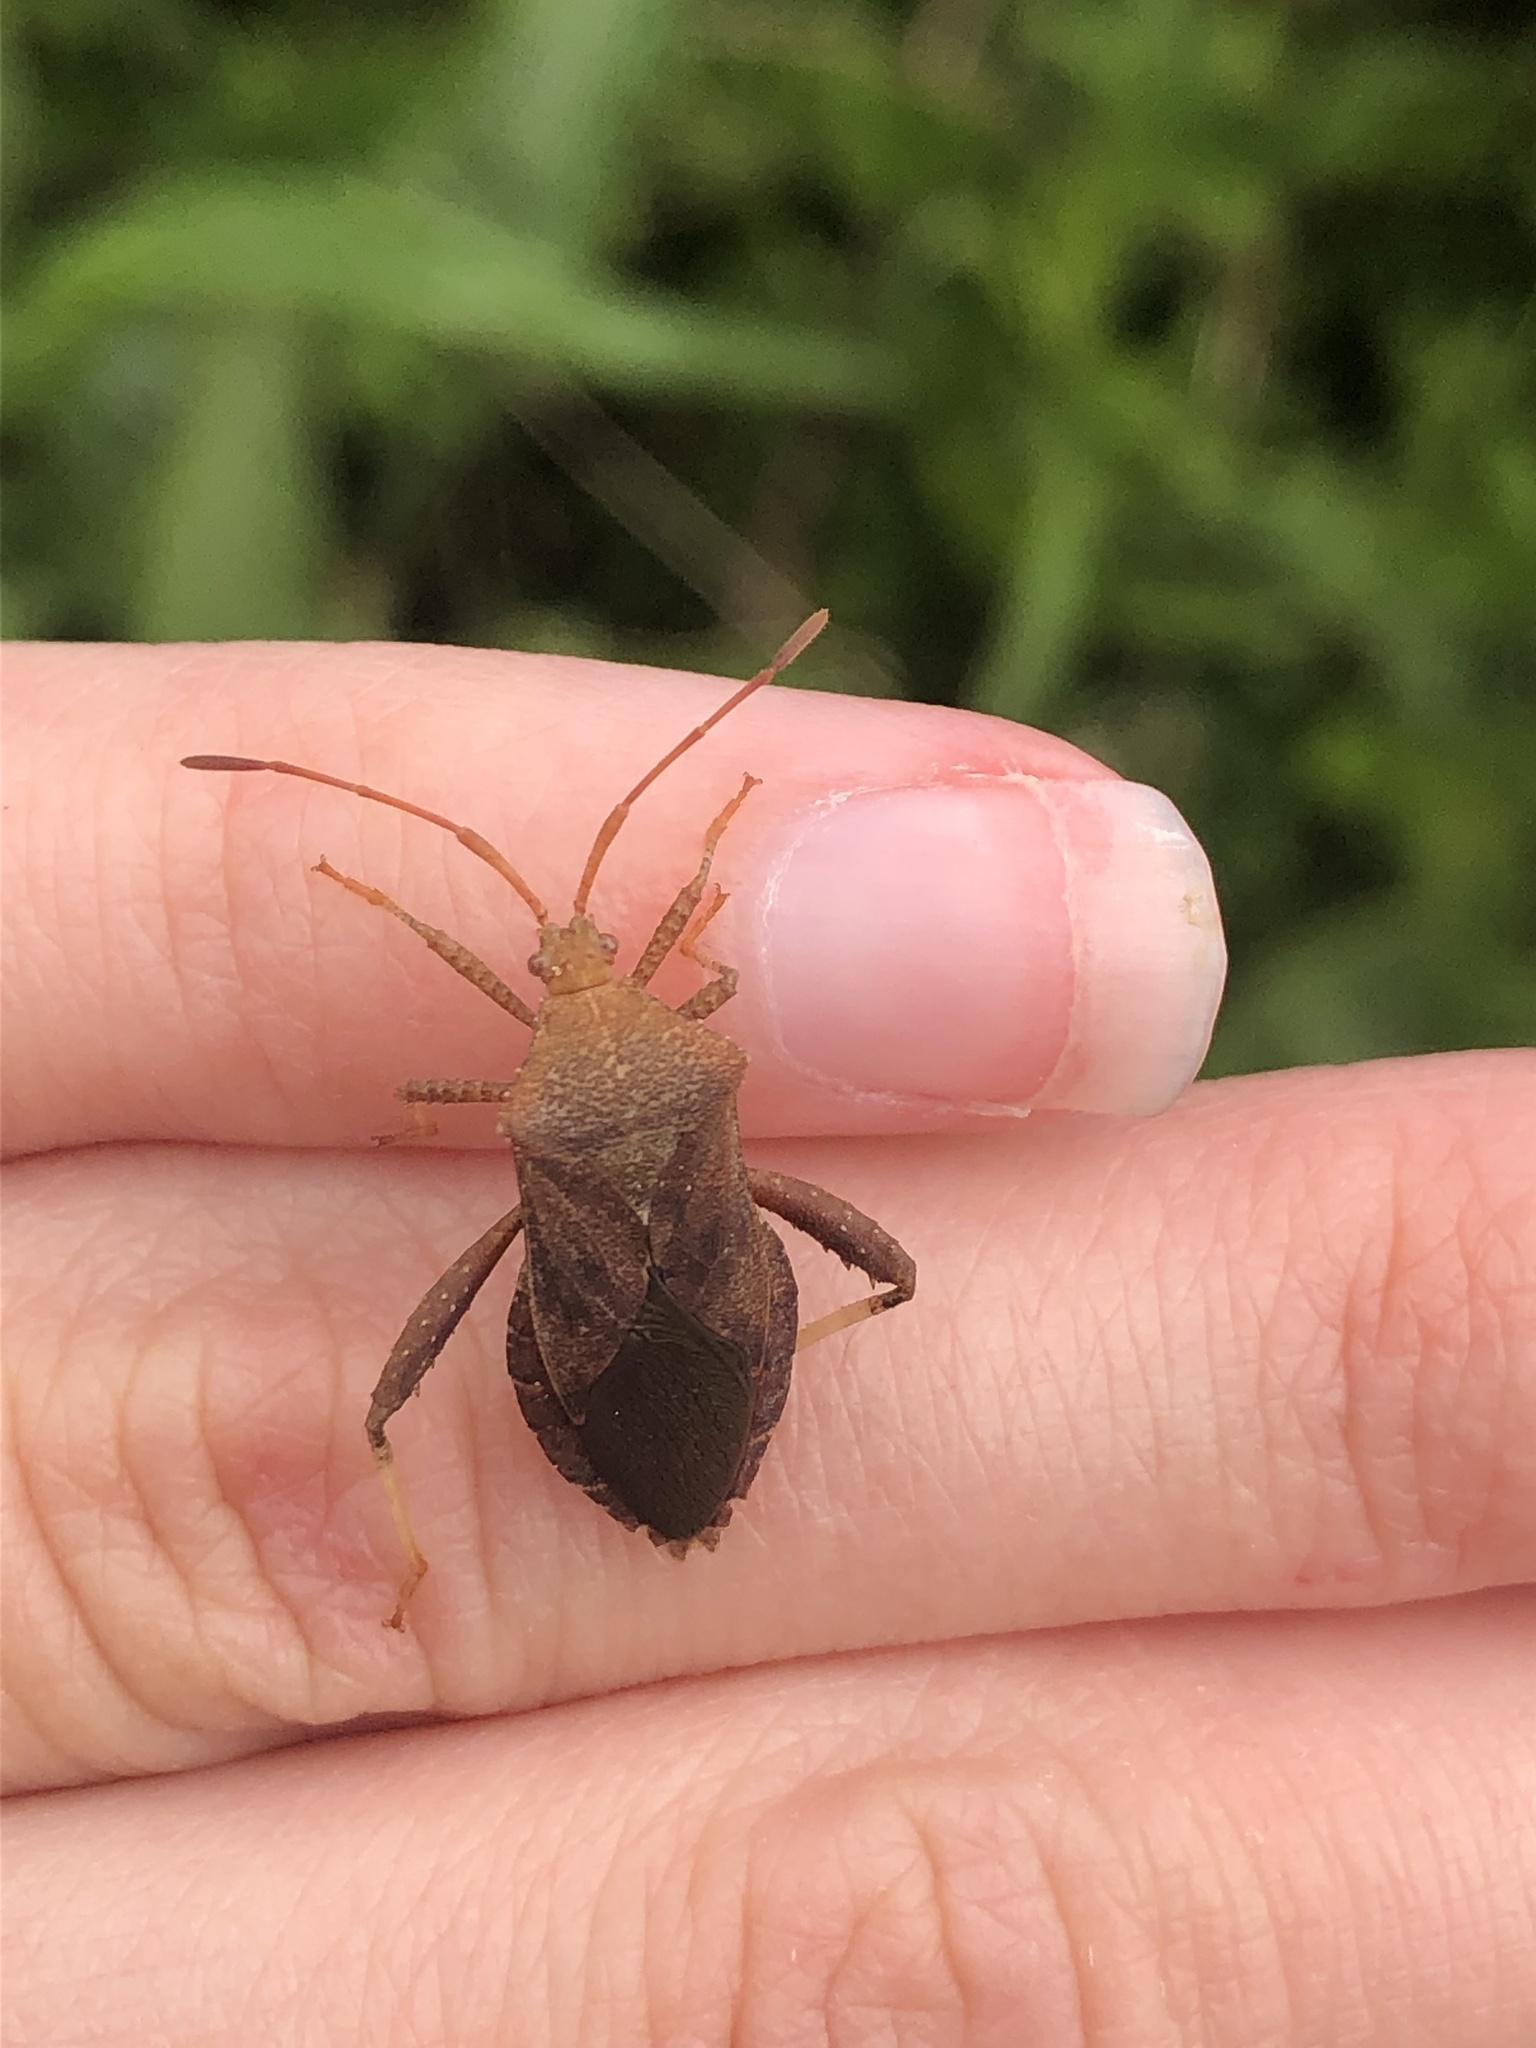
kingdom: Animalia
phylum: Arthropoda
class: Insecta
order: Hemiptera
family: Coreidae
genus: Euthochtha
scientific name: Euthochtha galeator
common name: Helmeted squash bug
